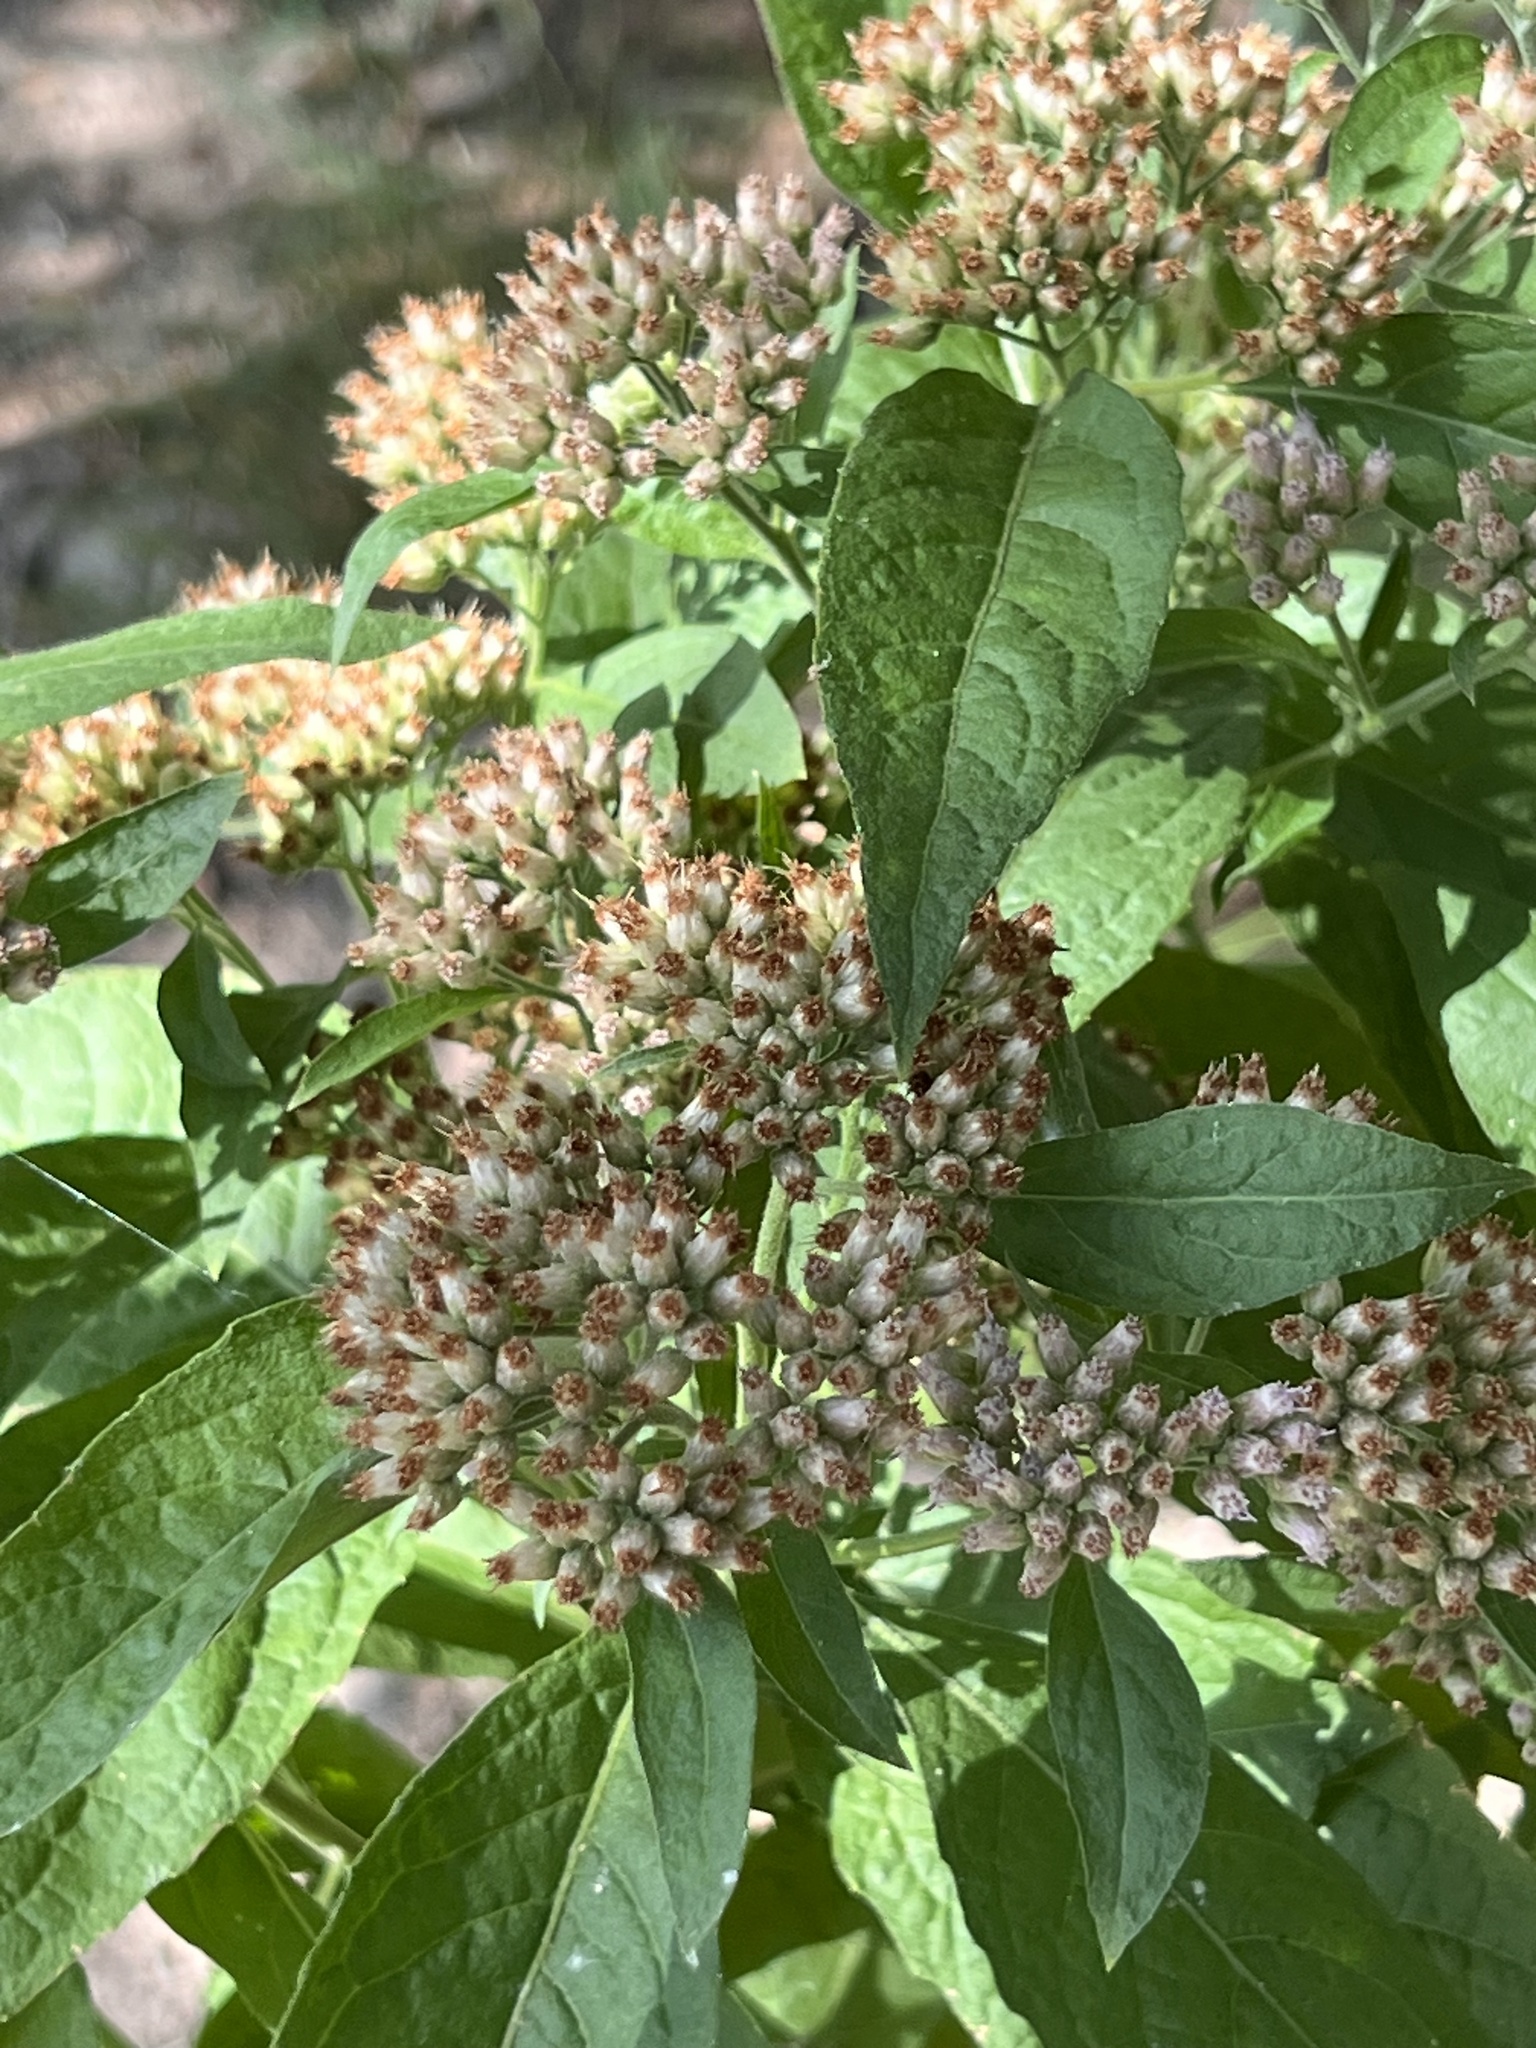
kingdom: Plantae
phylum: Tracheophyta
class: Magnoliopsida
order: Asterales
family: Asteraceae
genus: Pluchea
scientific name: Pluchea camphorata
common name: Camphor pluchea
